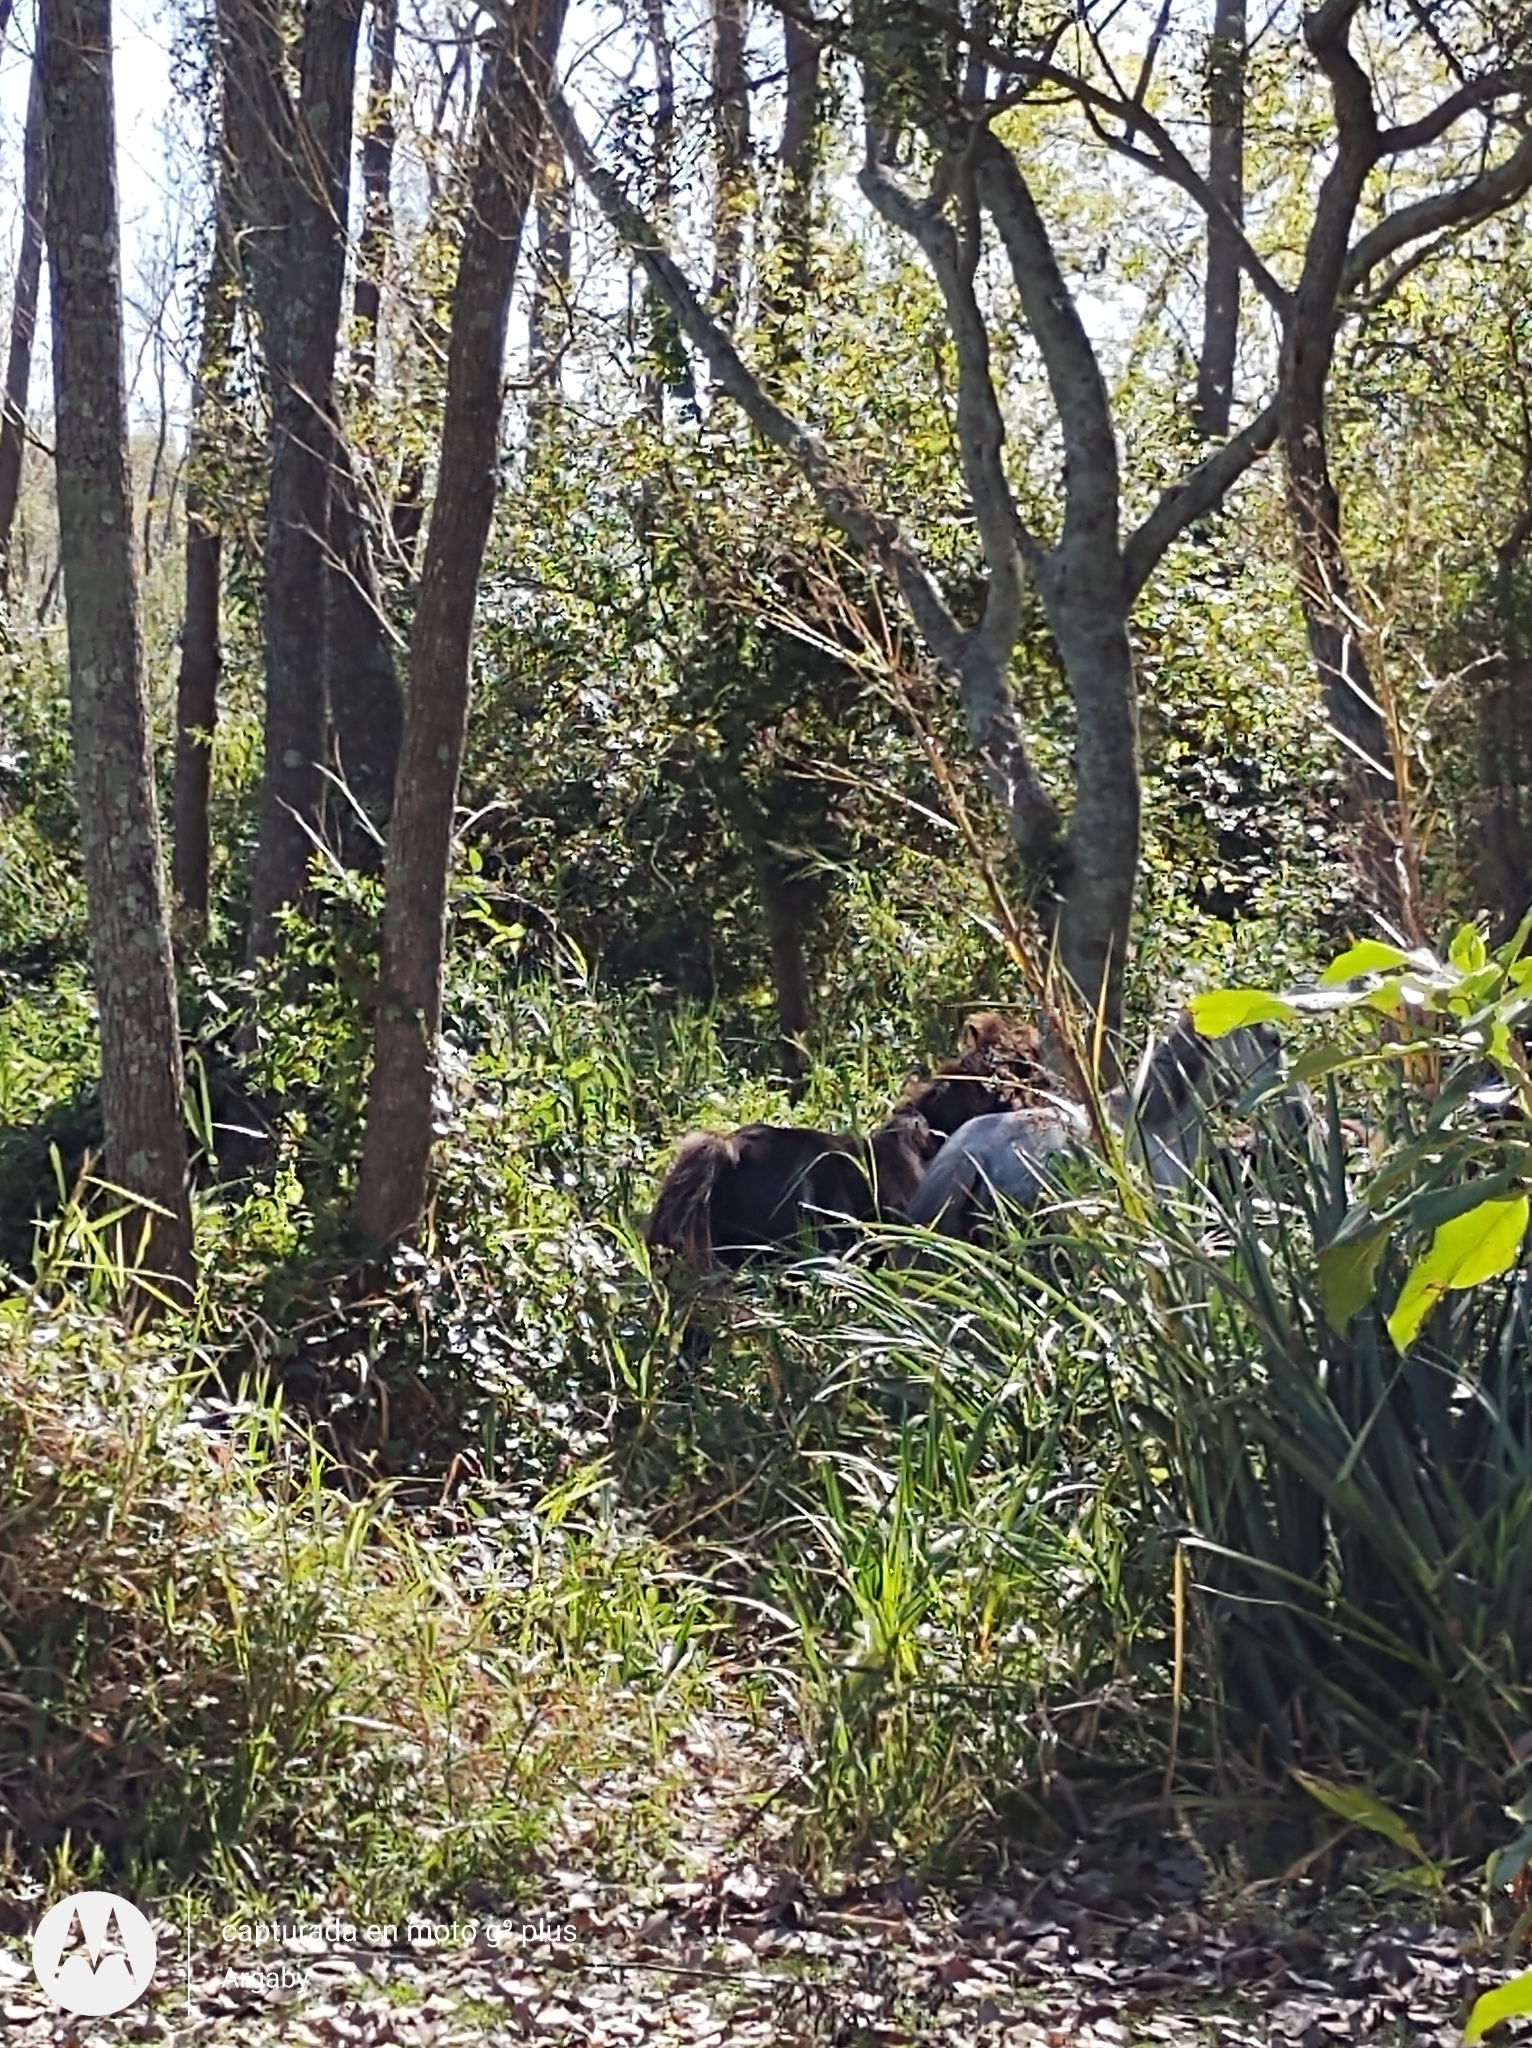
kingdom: Animalia
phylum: Chordata
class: Mammalia
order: Perissodactyla
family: Equidae
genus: Equus
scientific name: Equus caballus
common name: Horse
